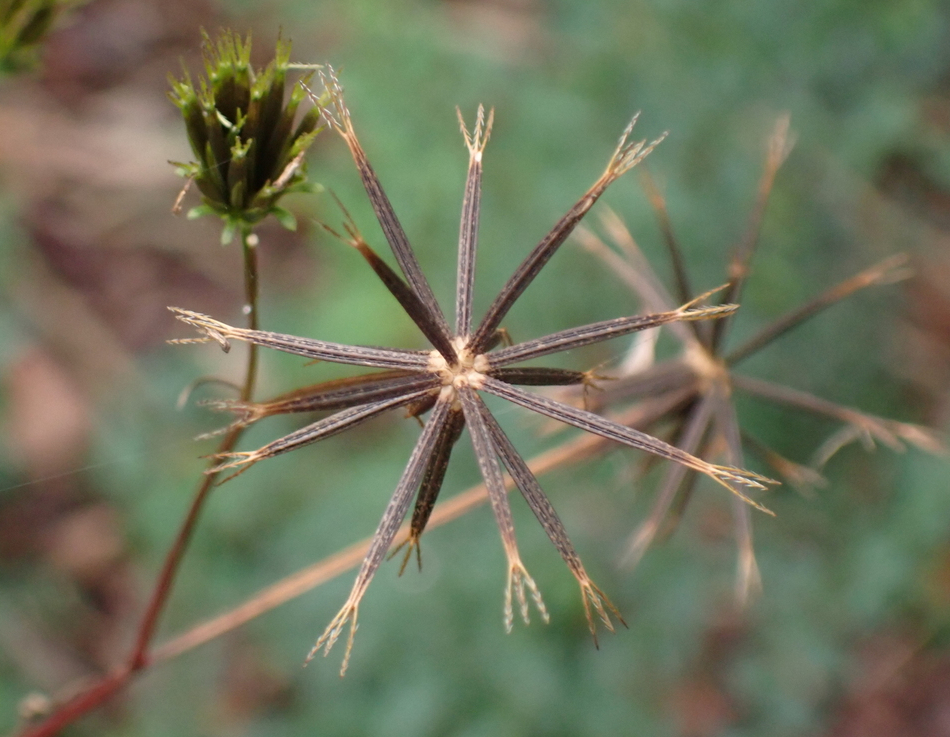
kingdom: Plantae
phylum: Tracheophyta
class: Magnoliopsida
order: Asterales
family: Asteraceae
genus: Bidens
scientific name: Bidens bipinnata
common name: Spanish-needles
